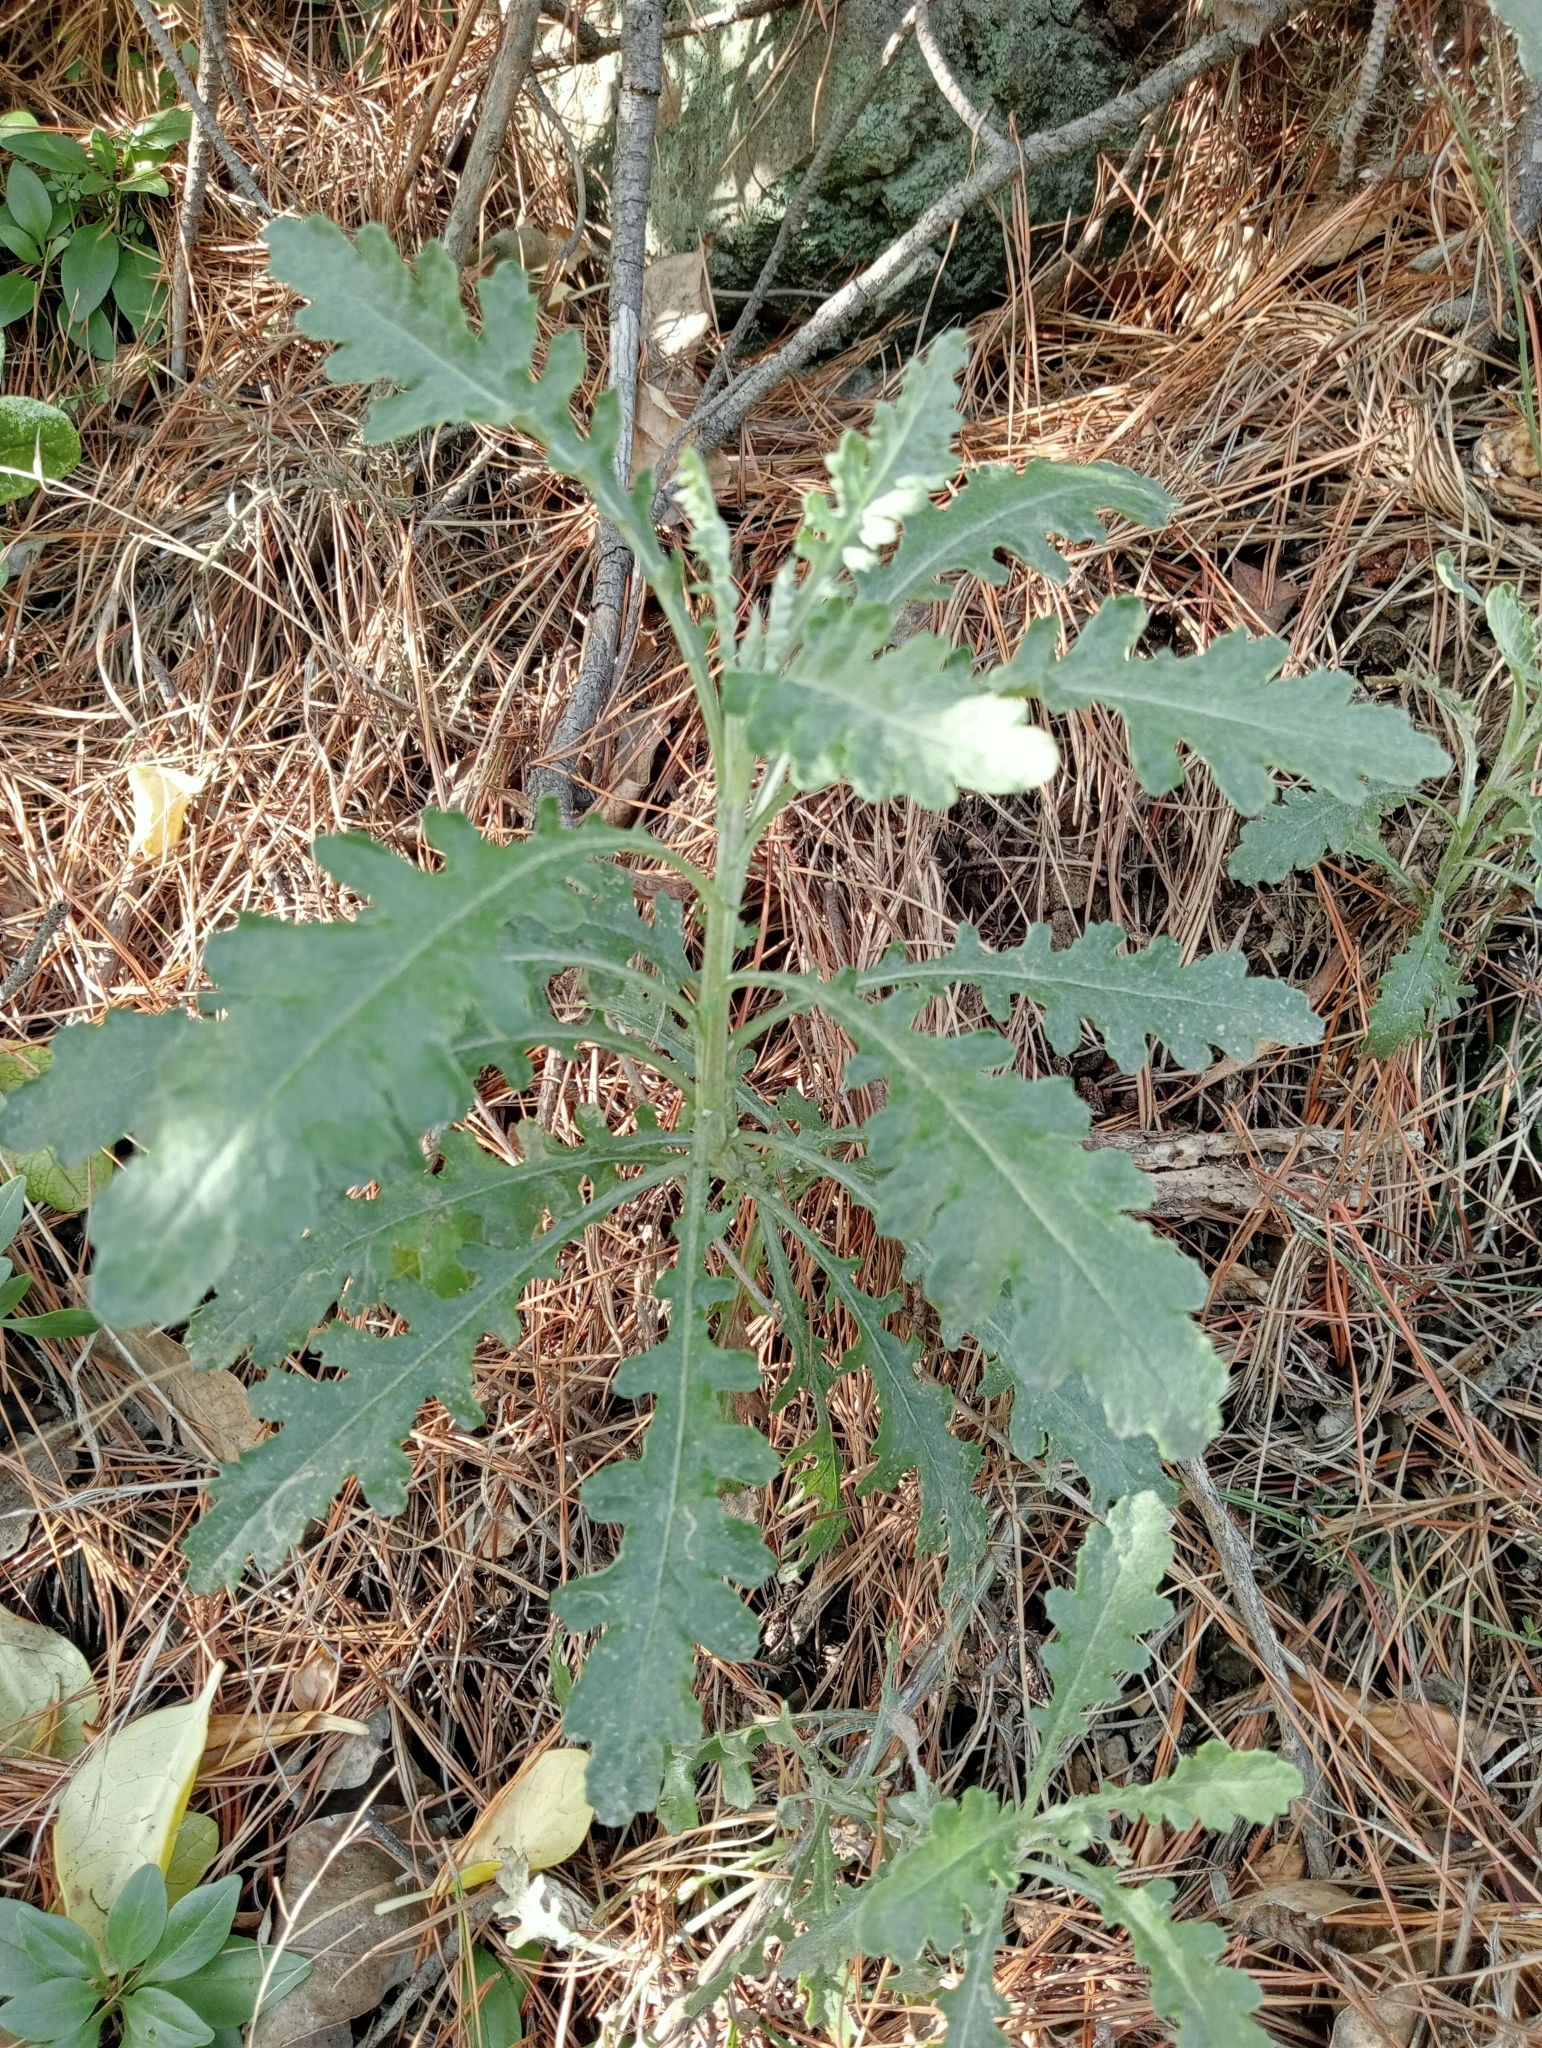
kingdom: Plantae
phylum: Tracheophyta
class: Magnoliopsida
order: Asterales
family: Asteraceae
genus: Senecio
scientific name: Senecio glomeratus
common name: Cutleaf burnweed
